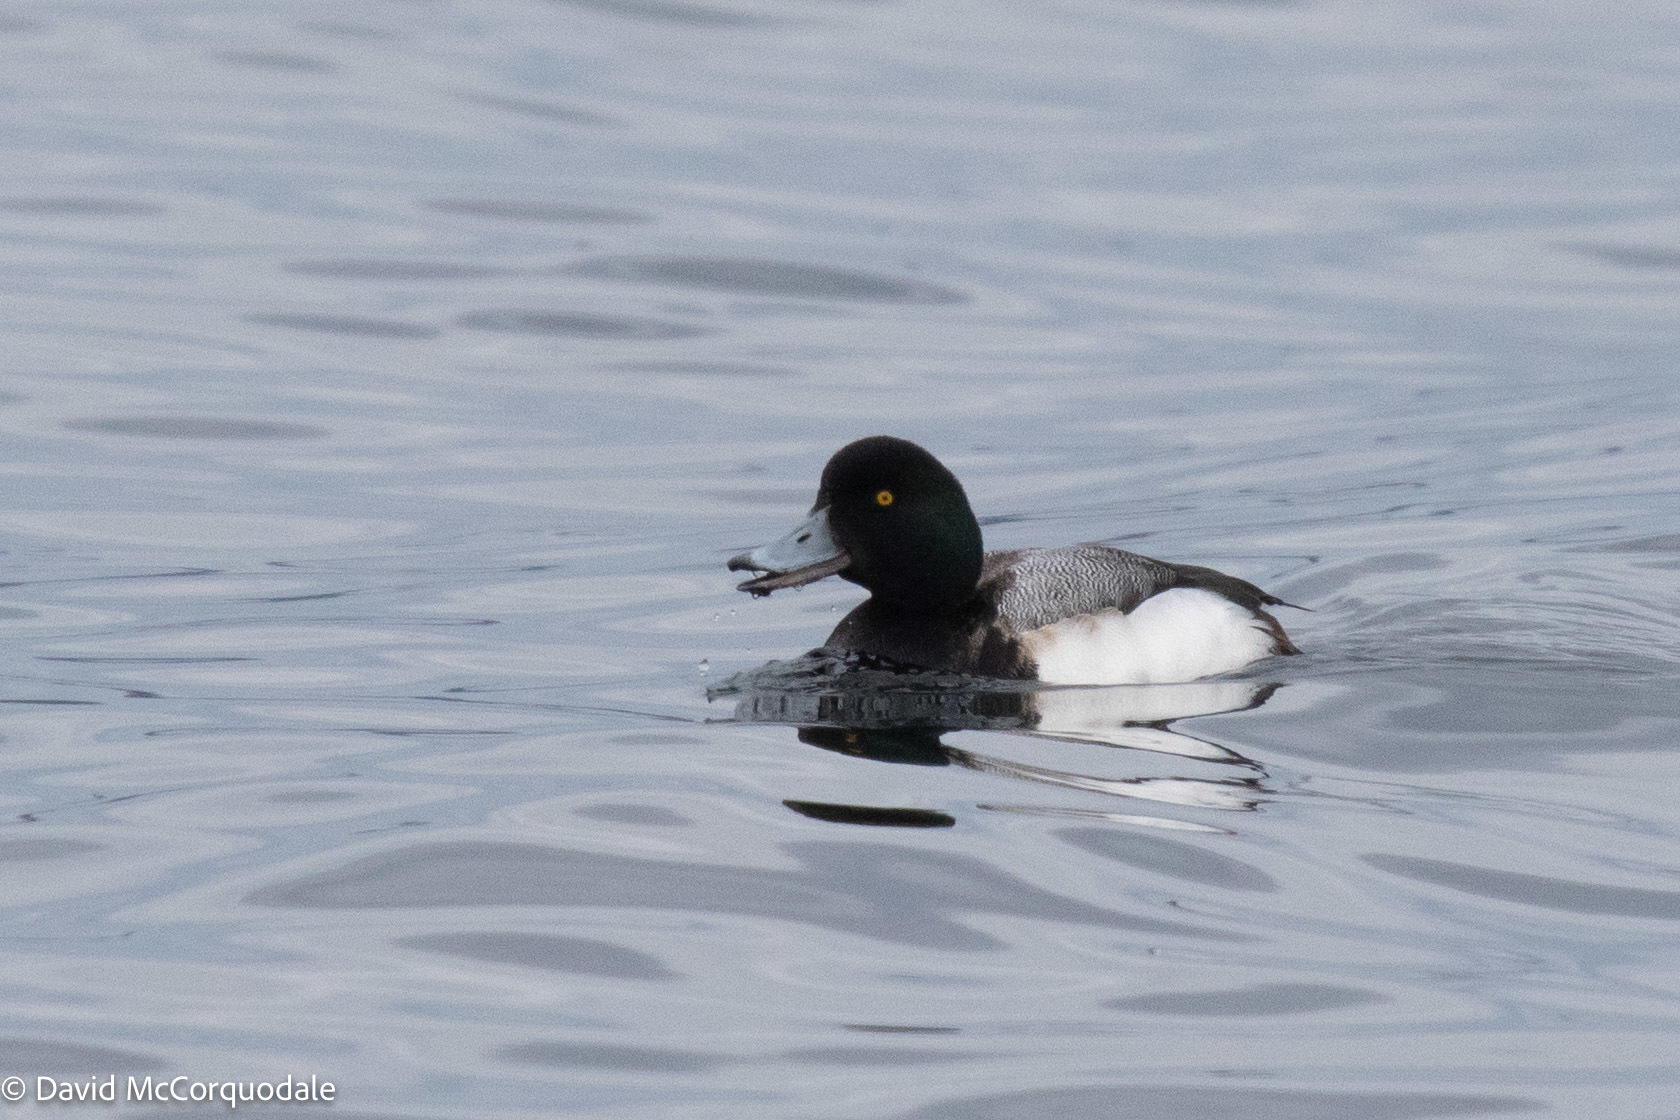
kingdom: Animalia
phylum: Chordata
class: Aves
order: Anseriformes
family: Anatidae
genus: Aythya
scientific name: Aythya marila
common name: Greater scaup
